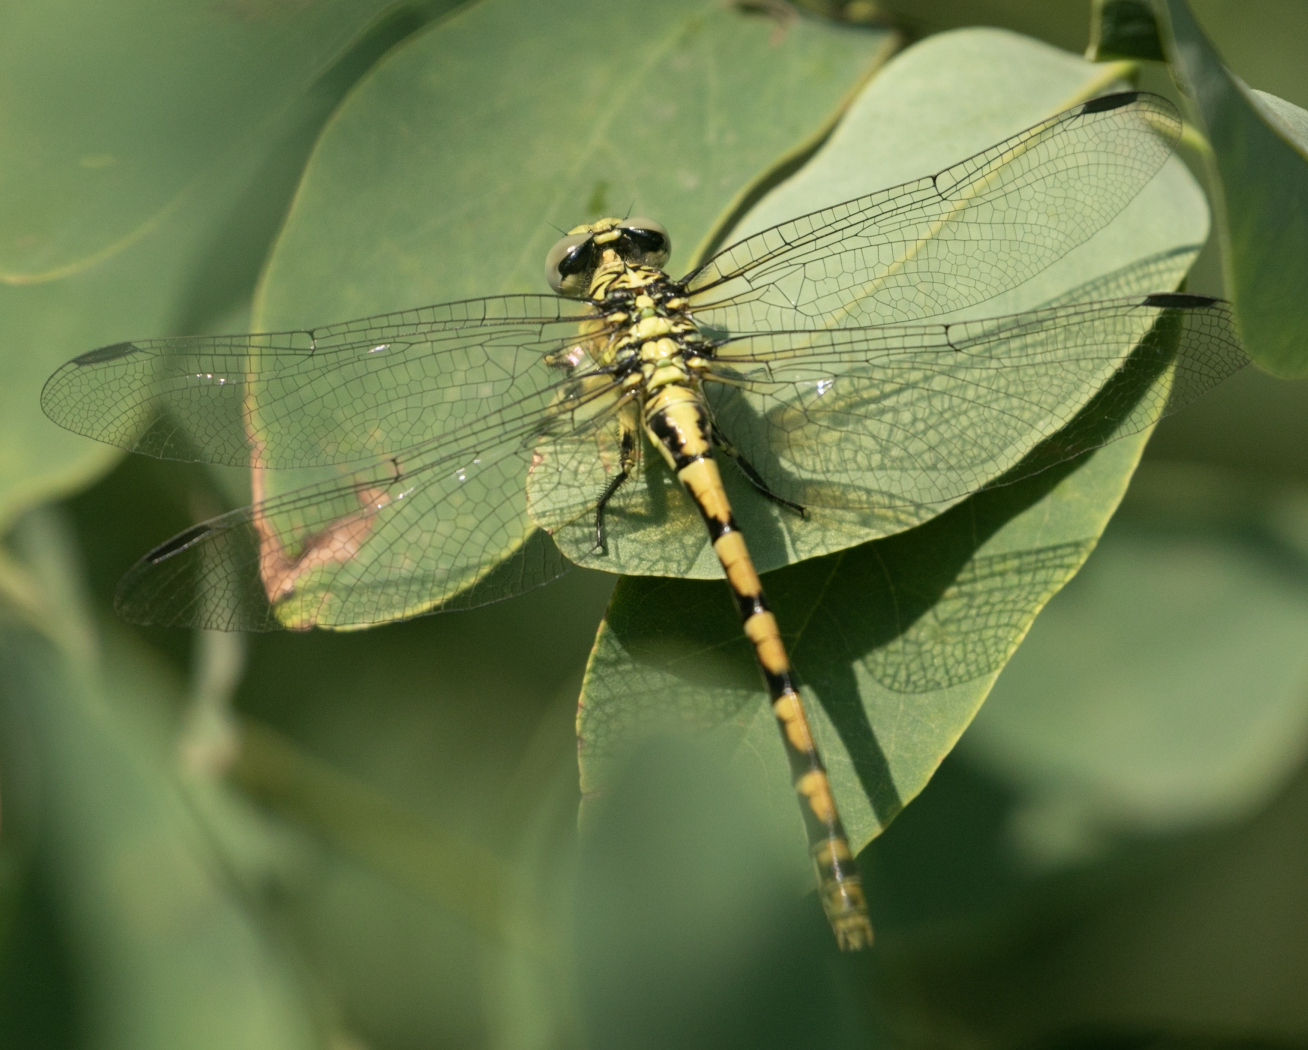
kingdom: Animalia
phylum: Arthropoda
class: Insecta
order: Odonata
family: Gomphidae
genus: Onychogomphus
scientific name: Onychogomphus forcipatus
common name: Small pincertail
